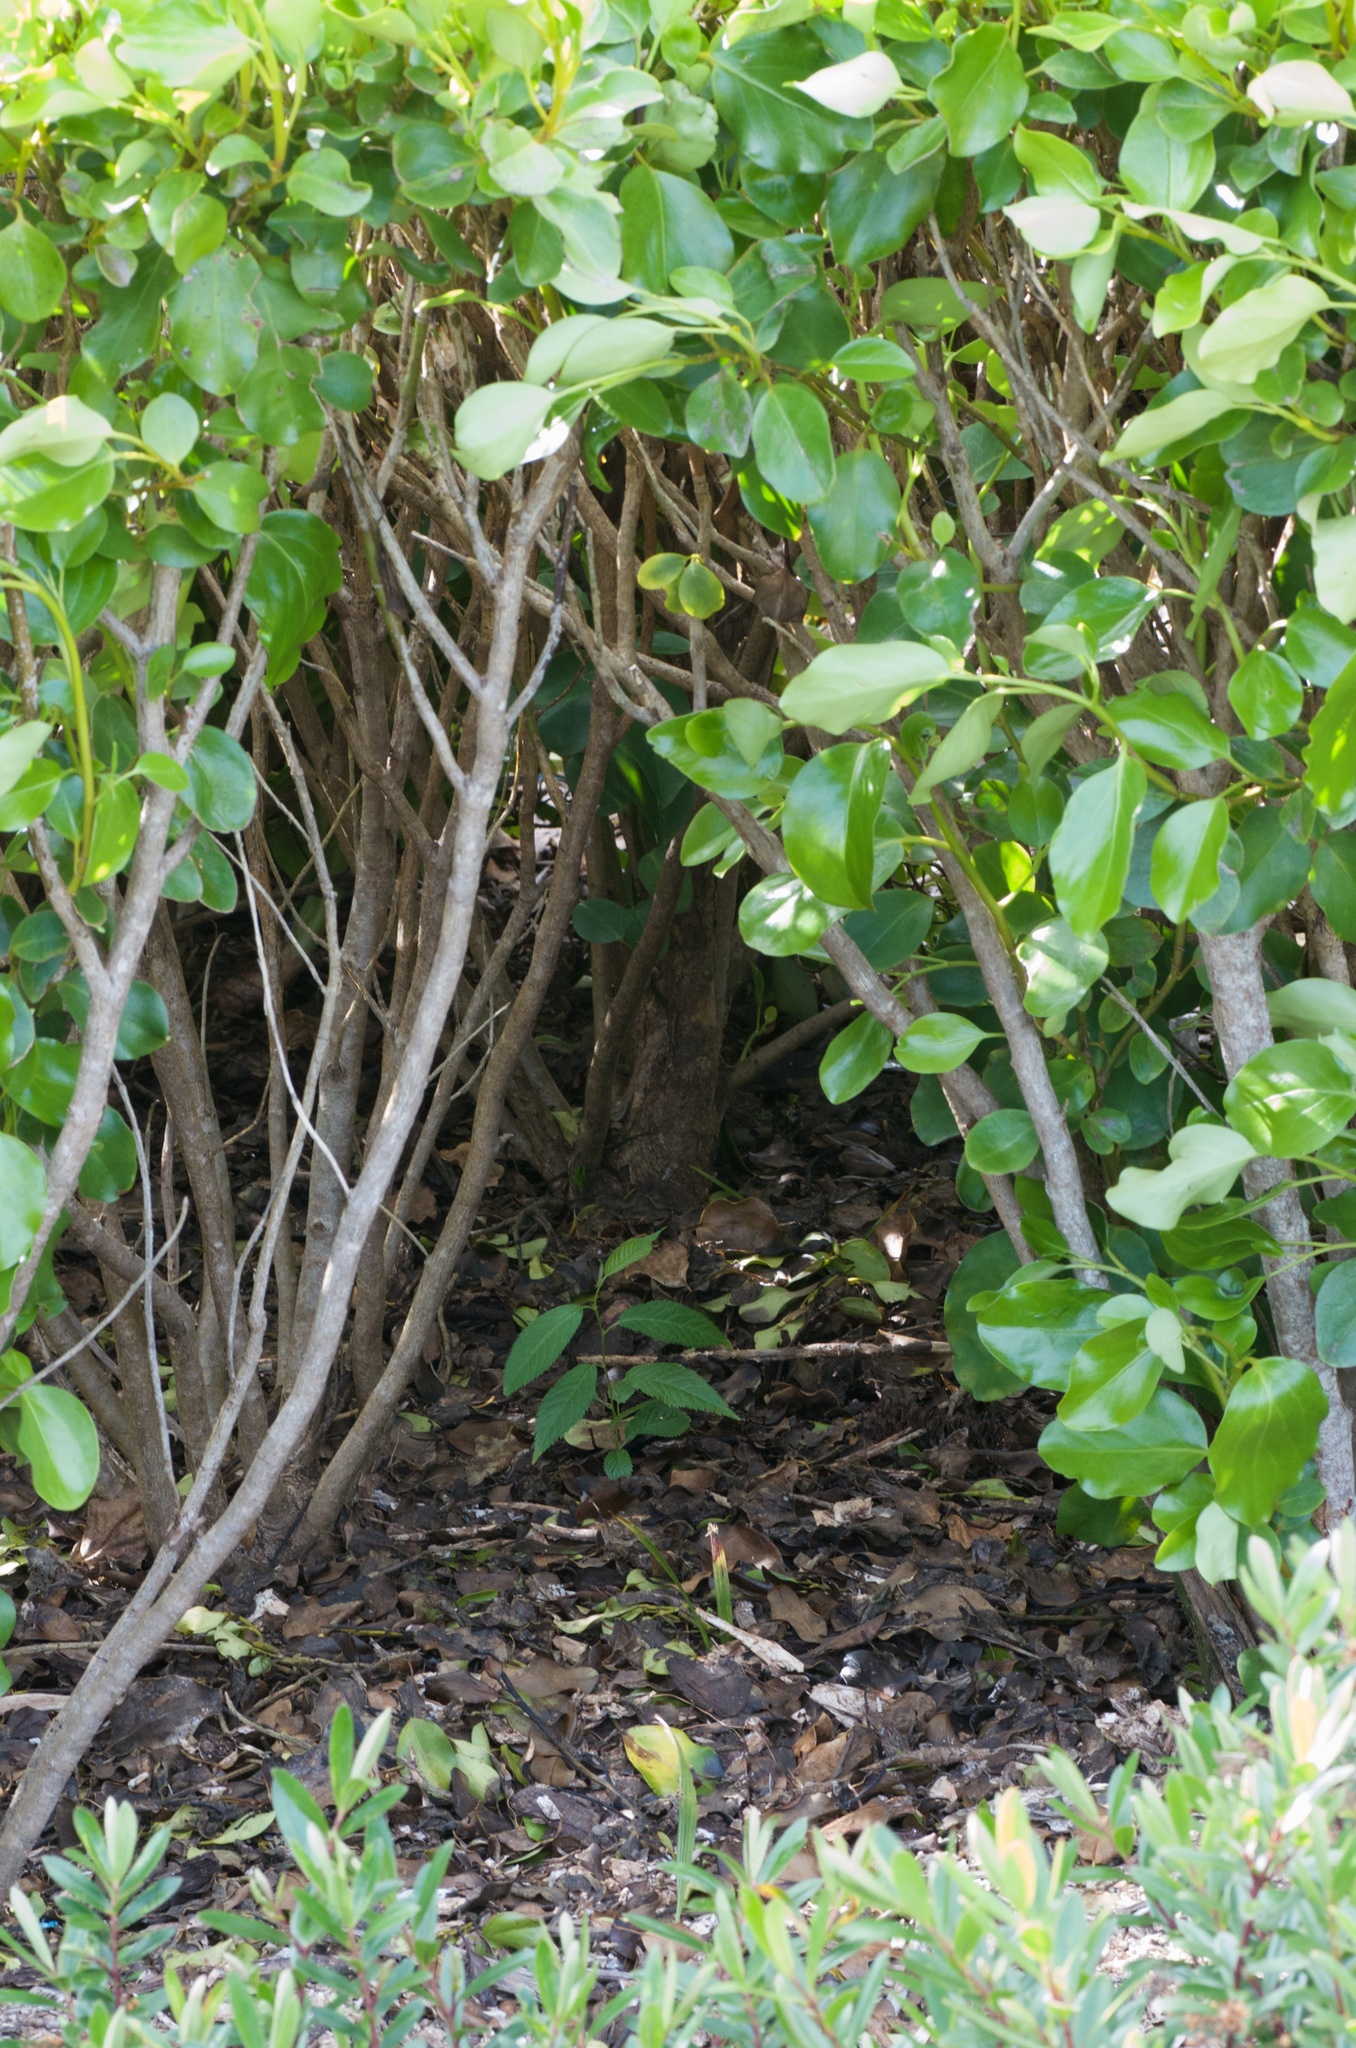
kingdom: Plantae
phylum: Tracheophyta
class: Magnoliopsida
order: Rosales
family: Rosaceae
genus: Prunus
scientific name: Prunus campanulata
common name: Taiwan flowering cherry
